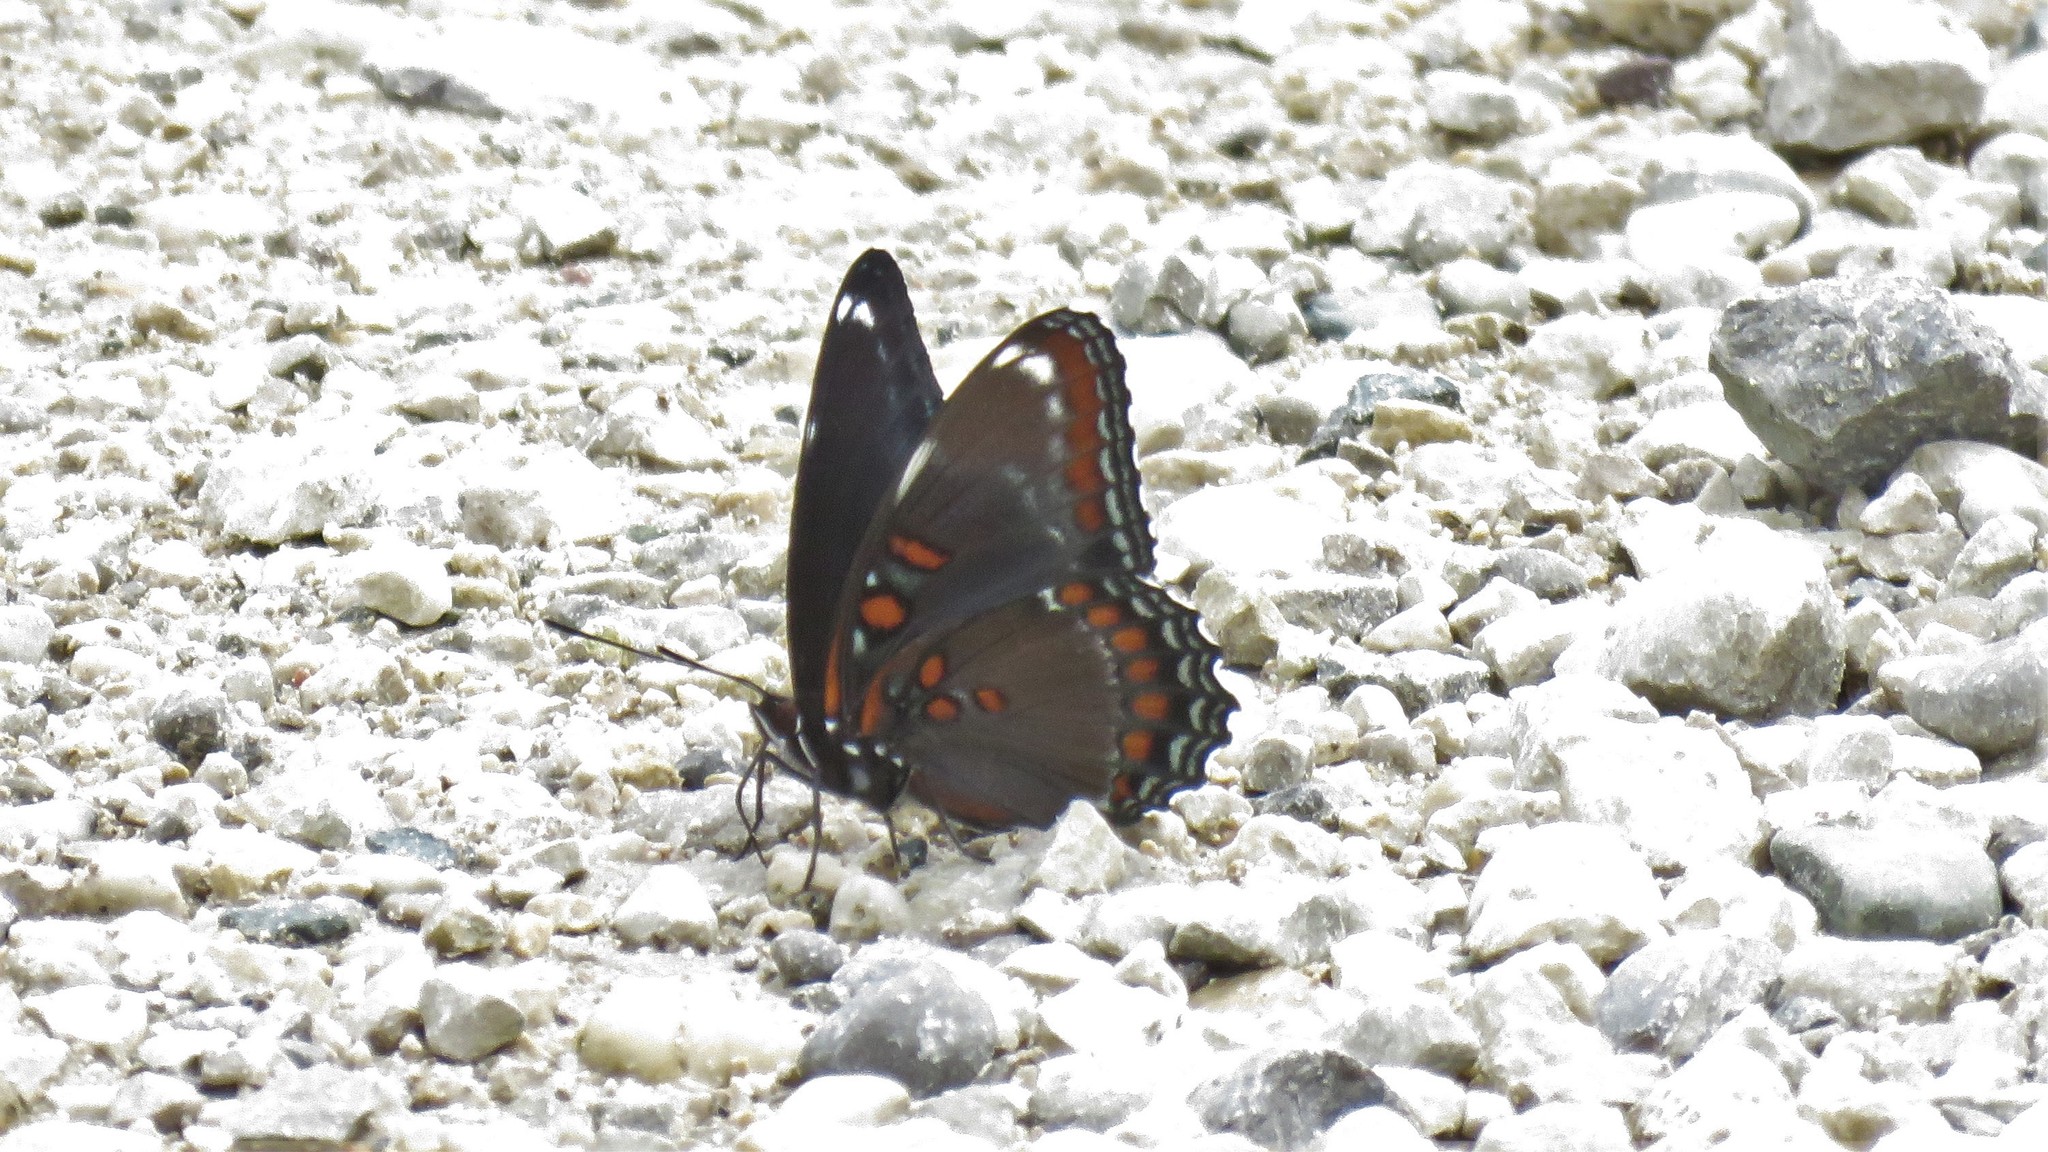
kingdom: Animalia
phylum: Arthropoda
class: Insecta
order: Lepidoptera
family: Nymphalidae
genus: Limenitis
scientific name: Limenitis astyanax
